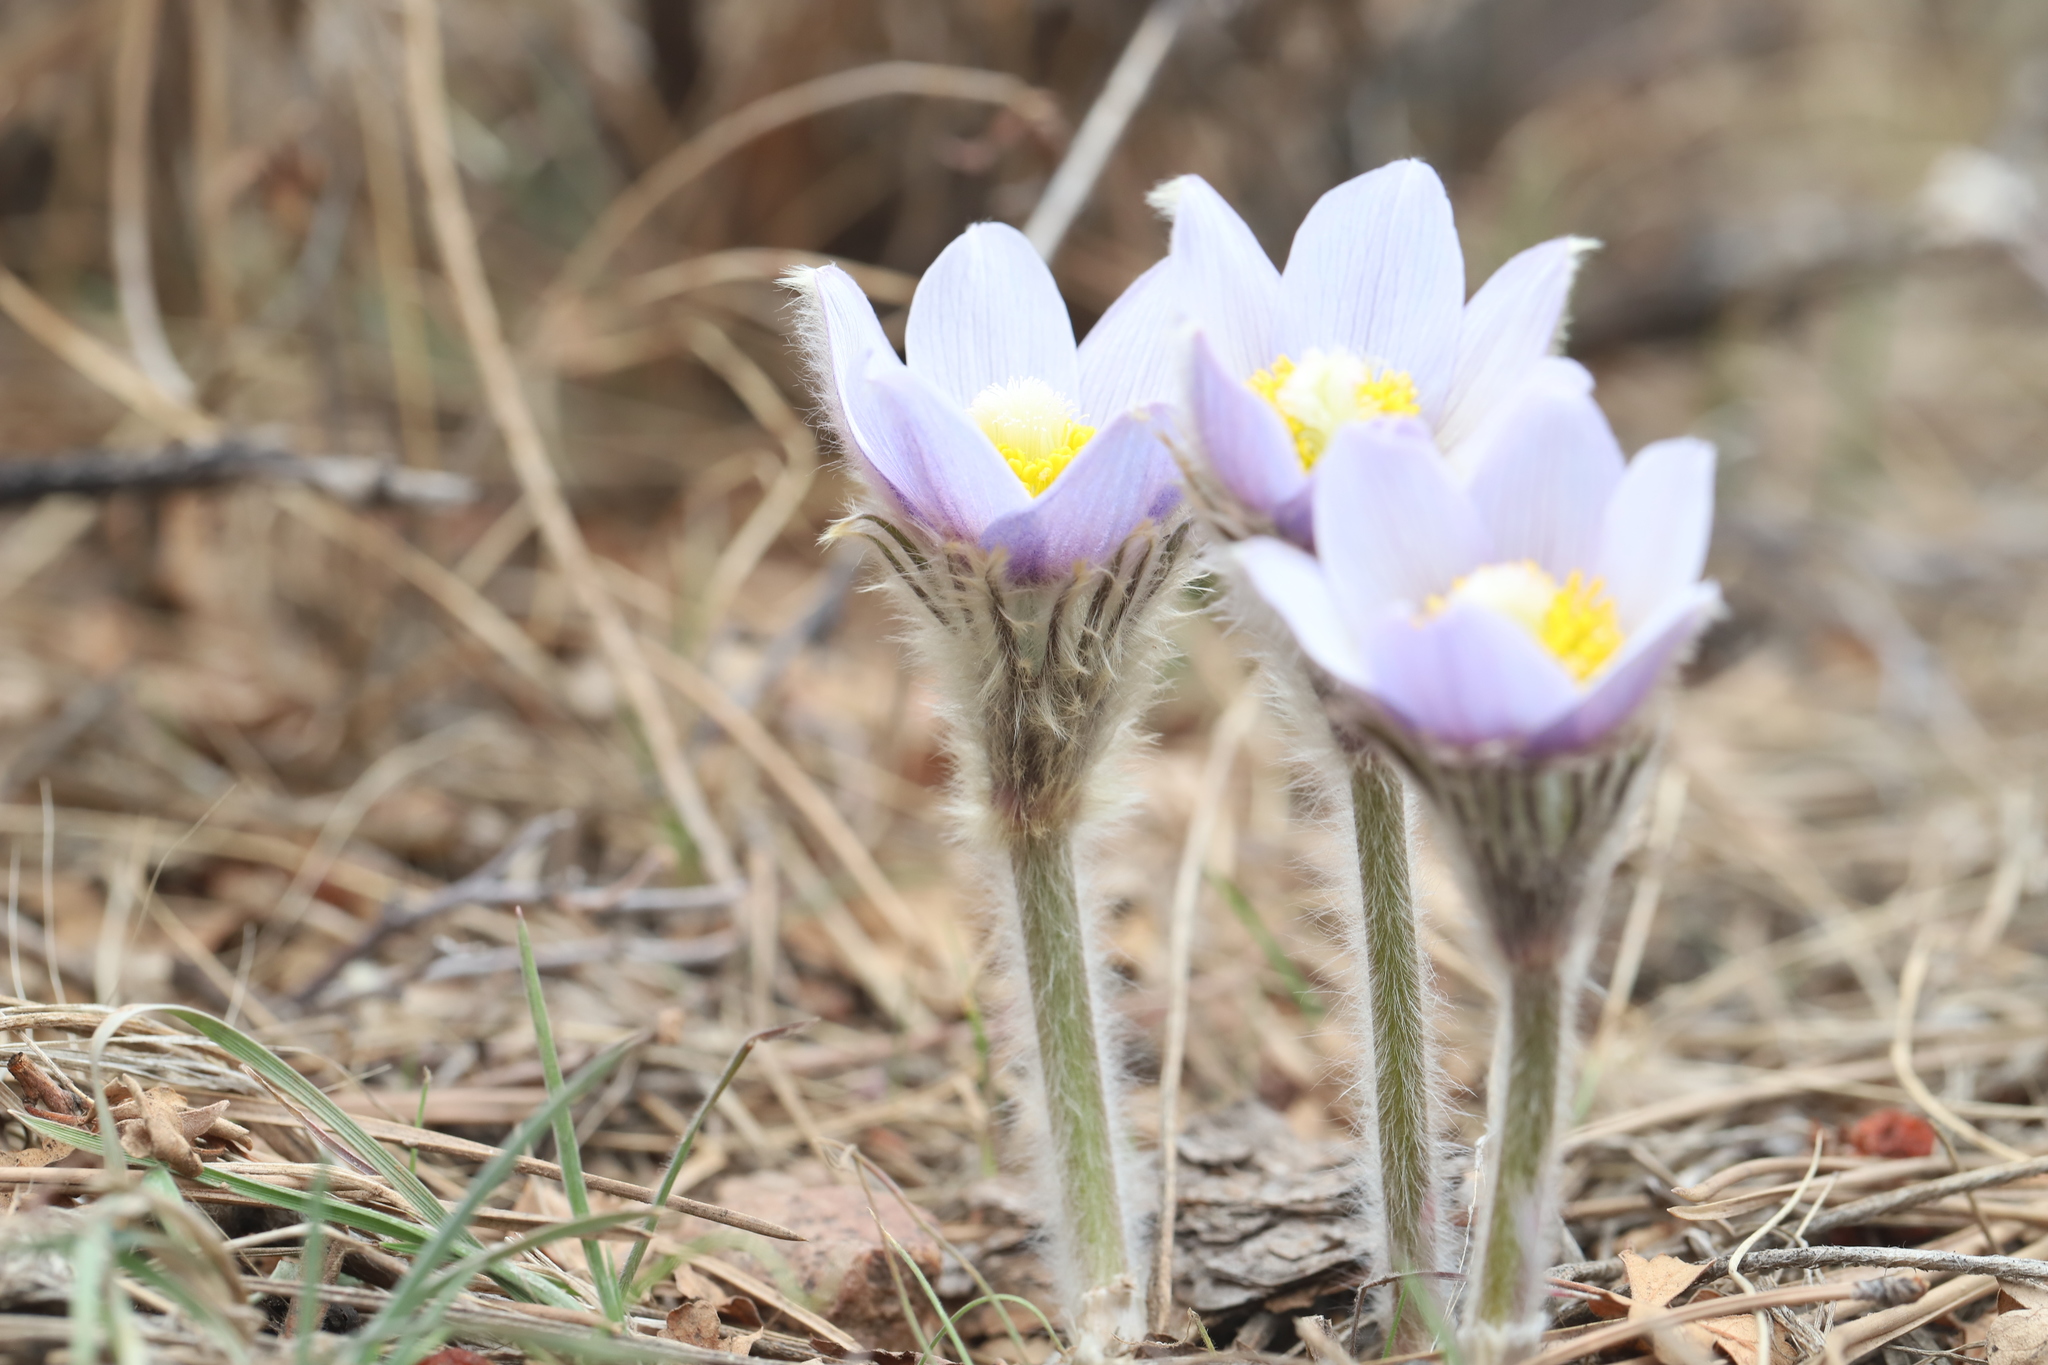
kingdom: Plantae
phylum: Tracheophyta
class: Magnoliopsida
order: Ranunculales
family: Ranunculaceae
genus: Pulsatilla
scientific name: Pulsatilla nuttalliana
